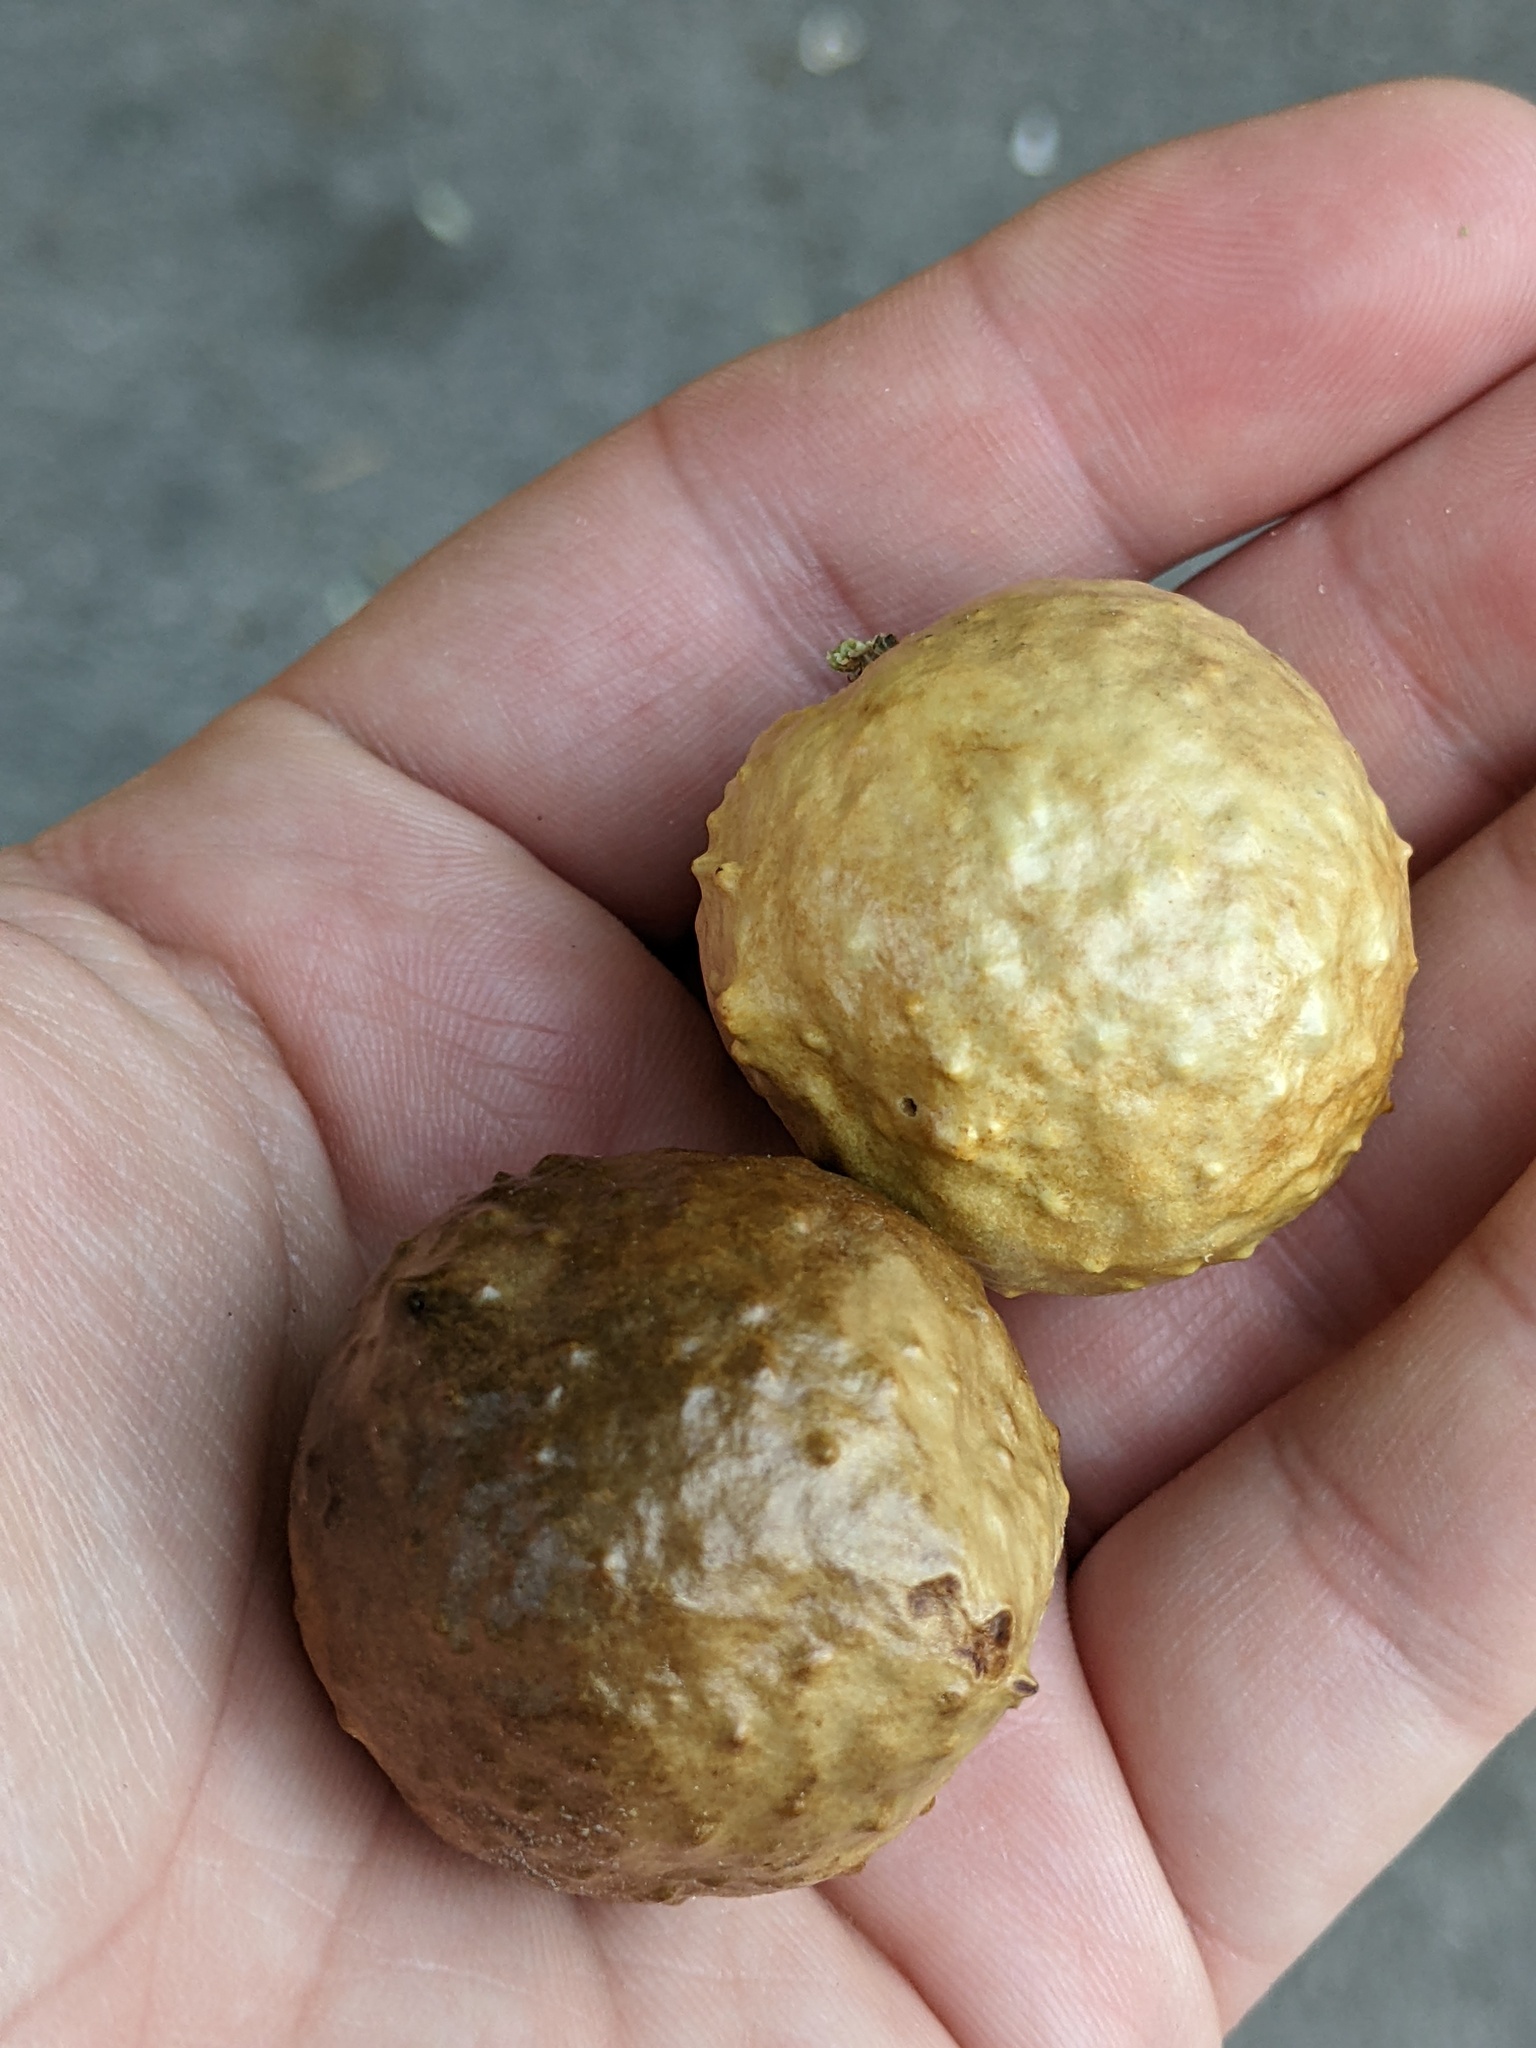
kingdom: Animalia
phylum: Arthropoda
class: Insecta
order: Hymenoptera
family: Cynipidae
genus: Amphibolips
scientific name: Amphibolips
